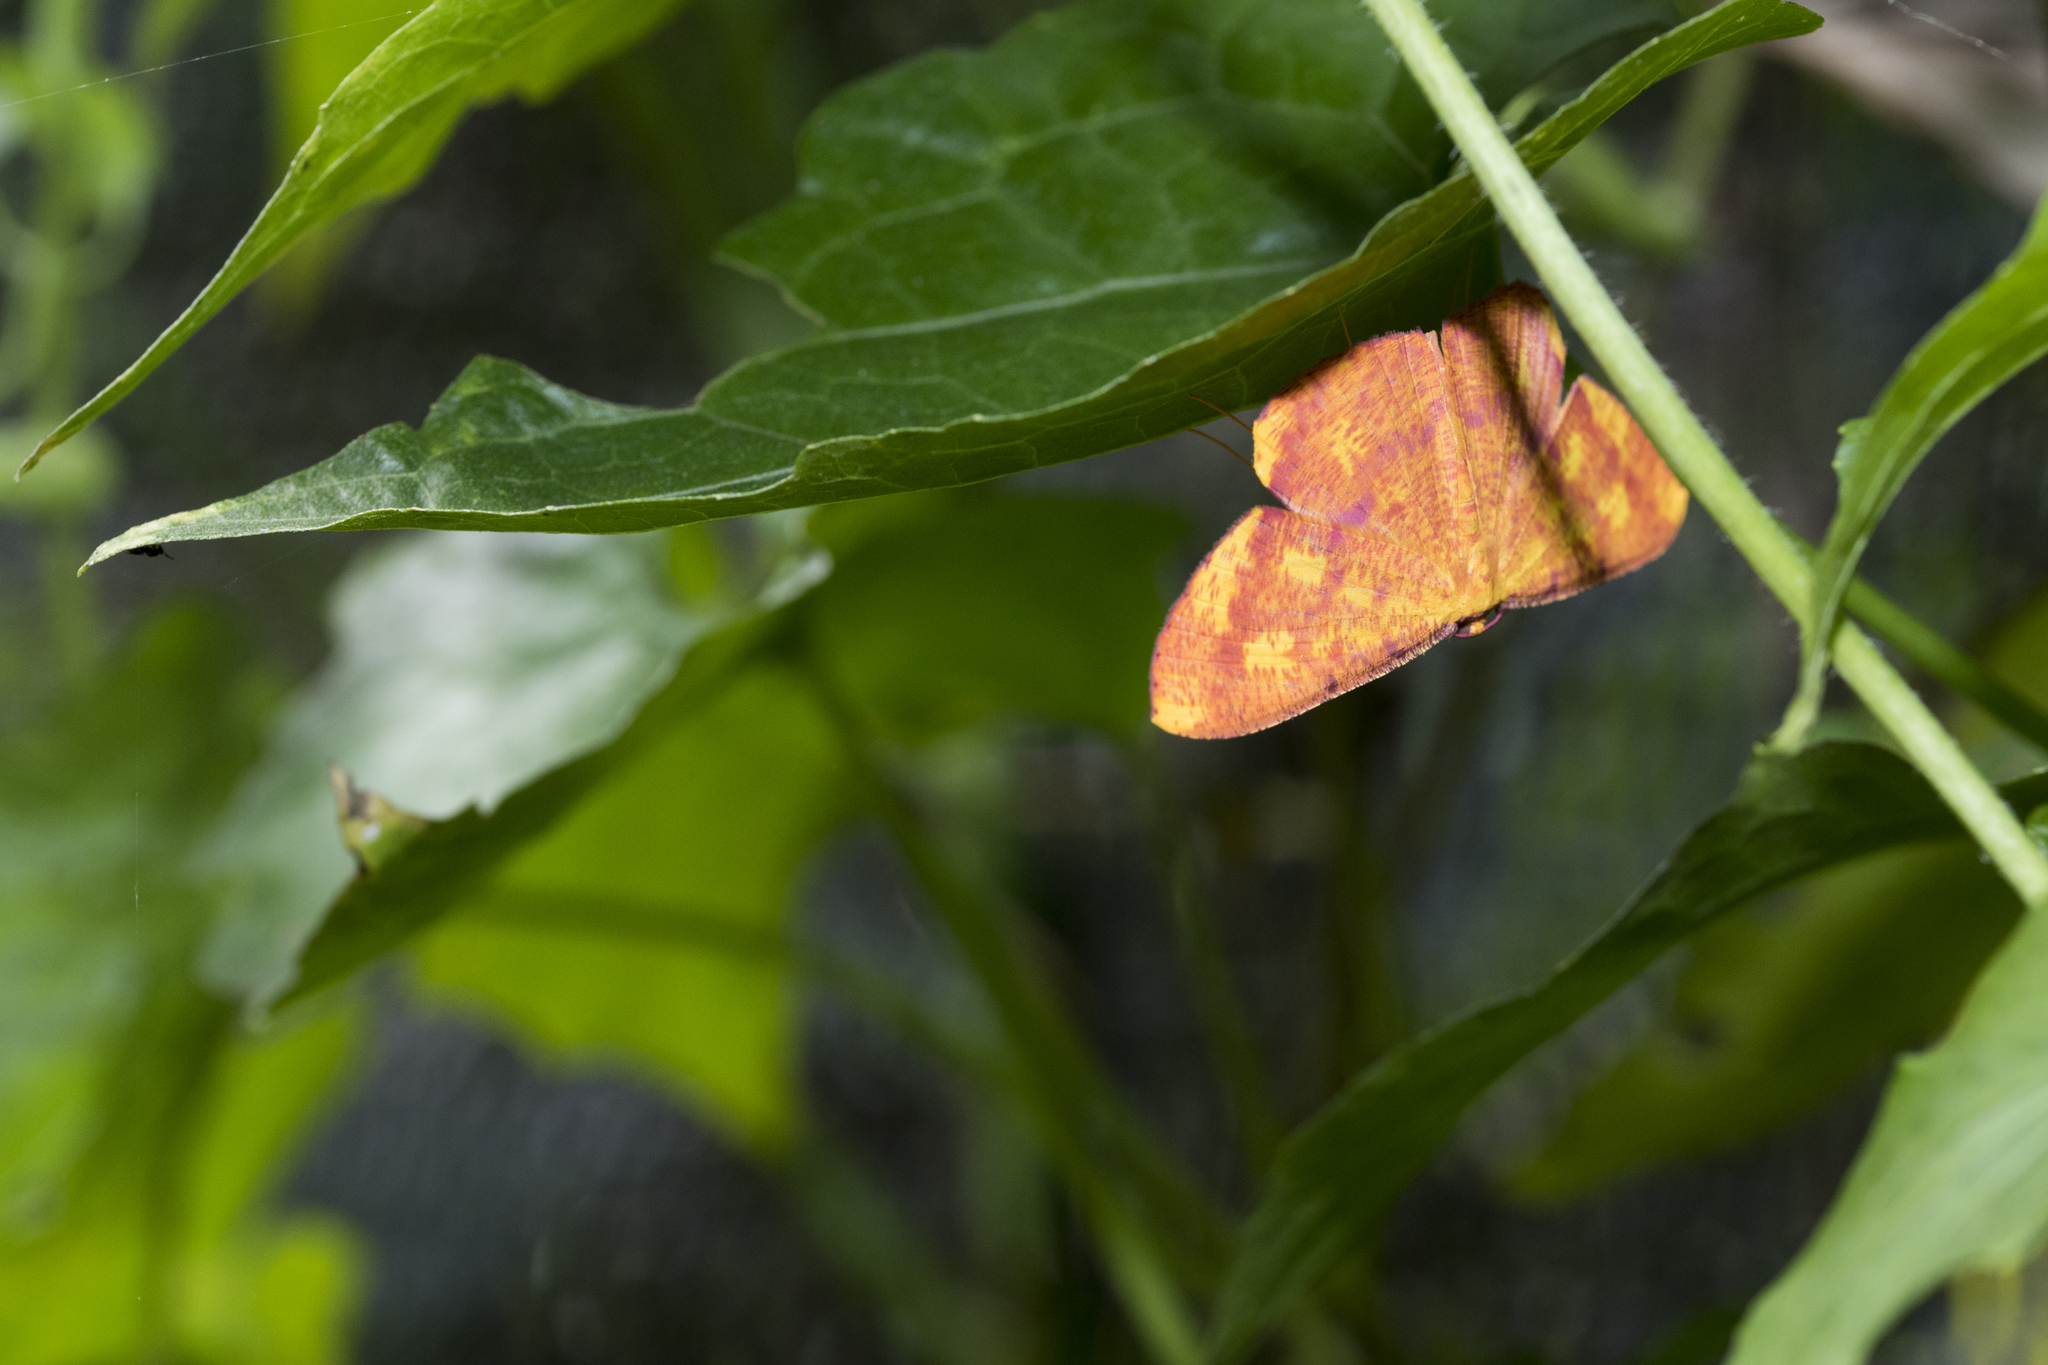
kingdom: Animalia
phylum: Arthropoda
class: Insecta
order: Lepidoptera
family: Geometridae
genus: Eumelea
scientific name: Eumelea ludovicata
